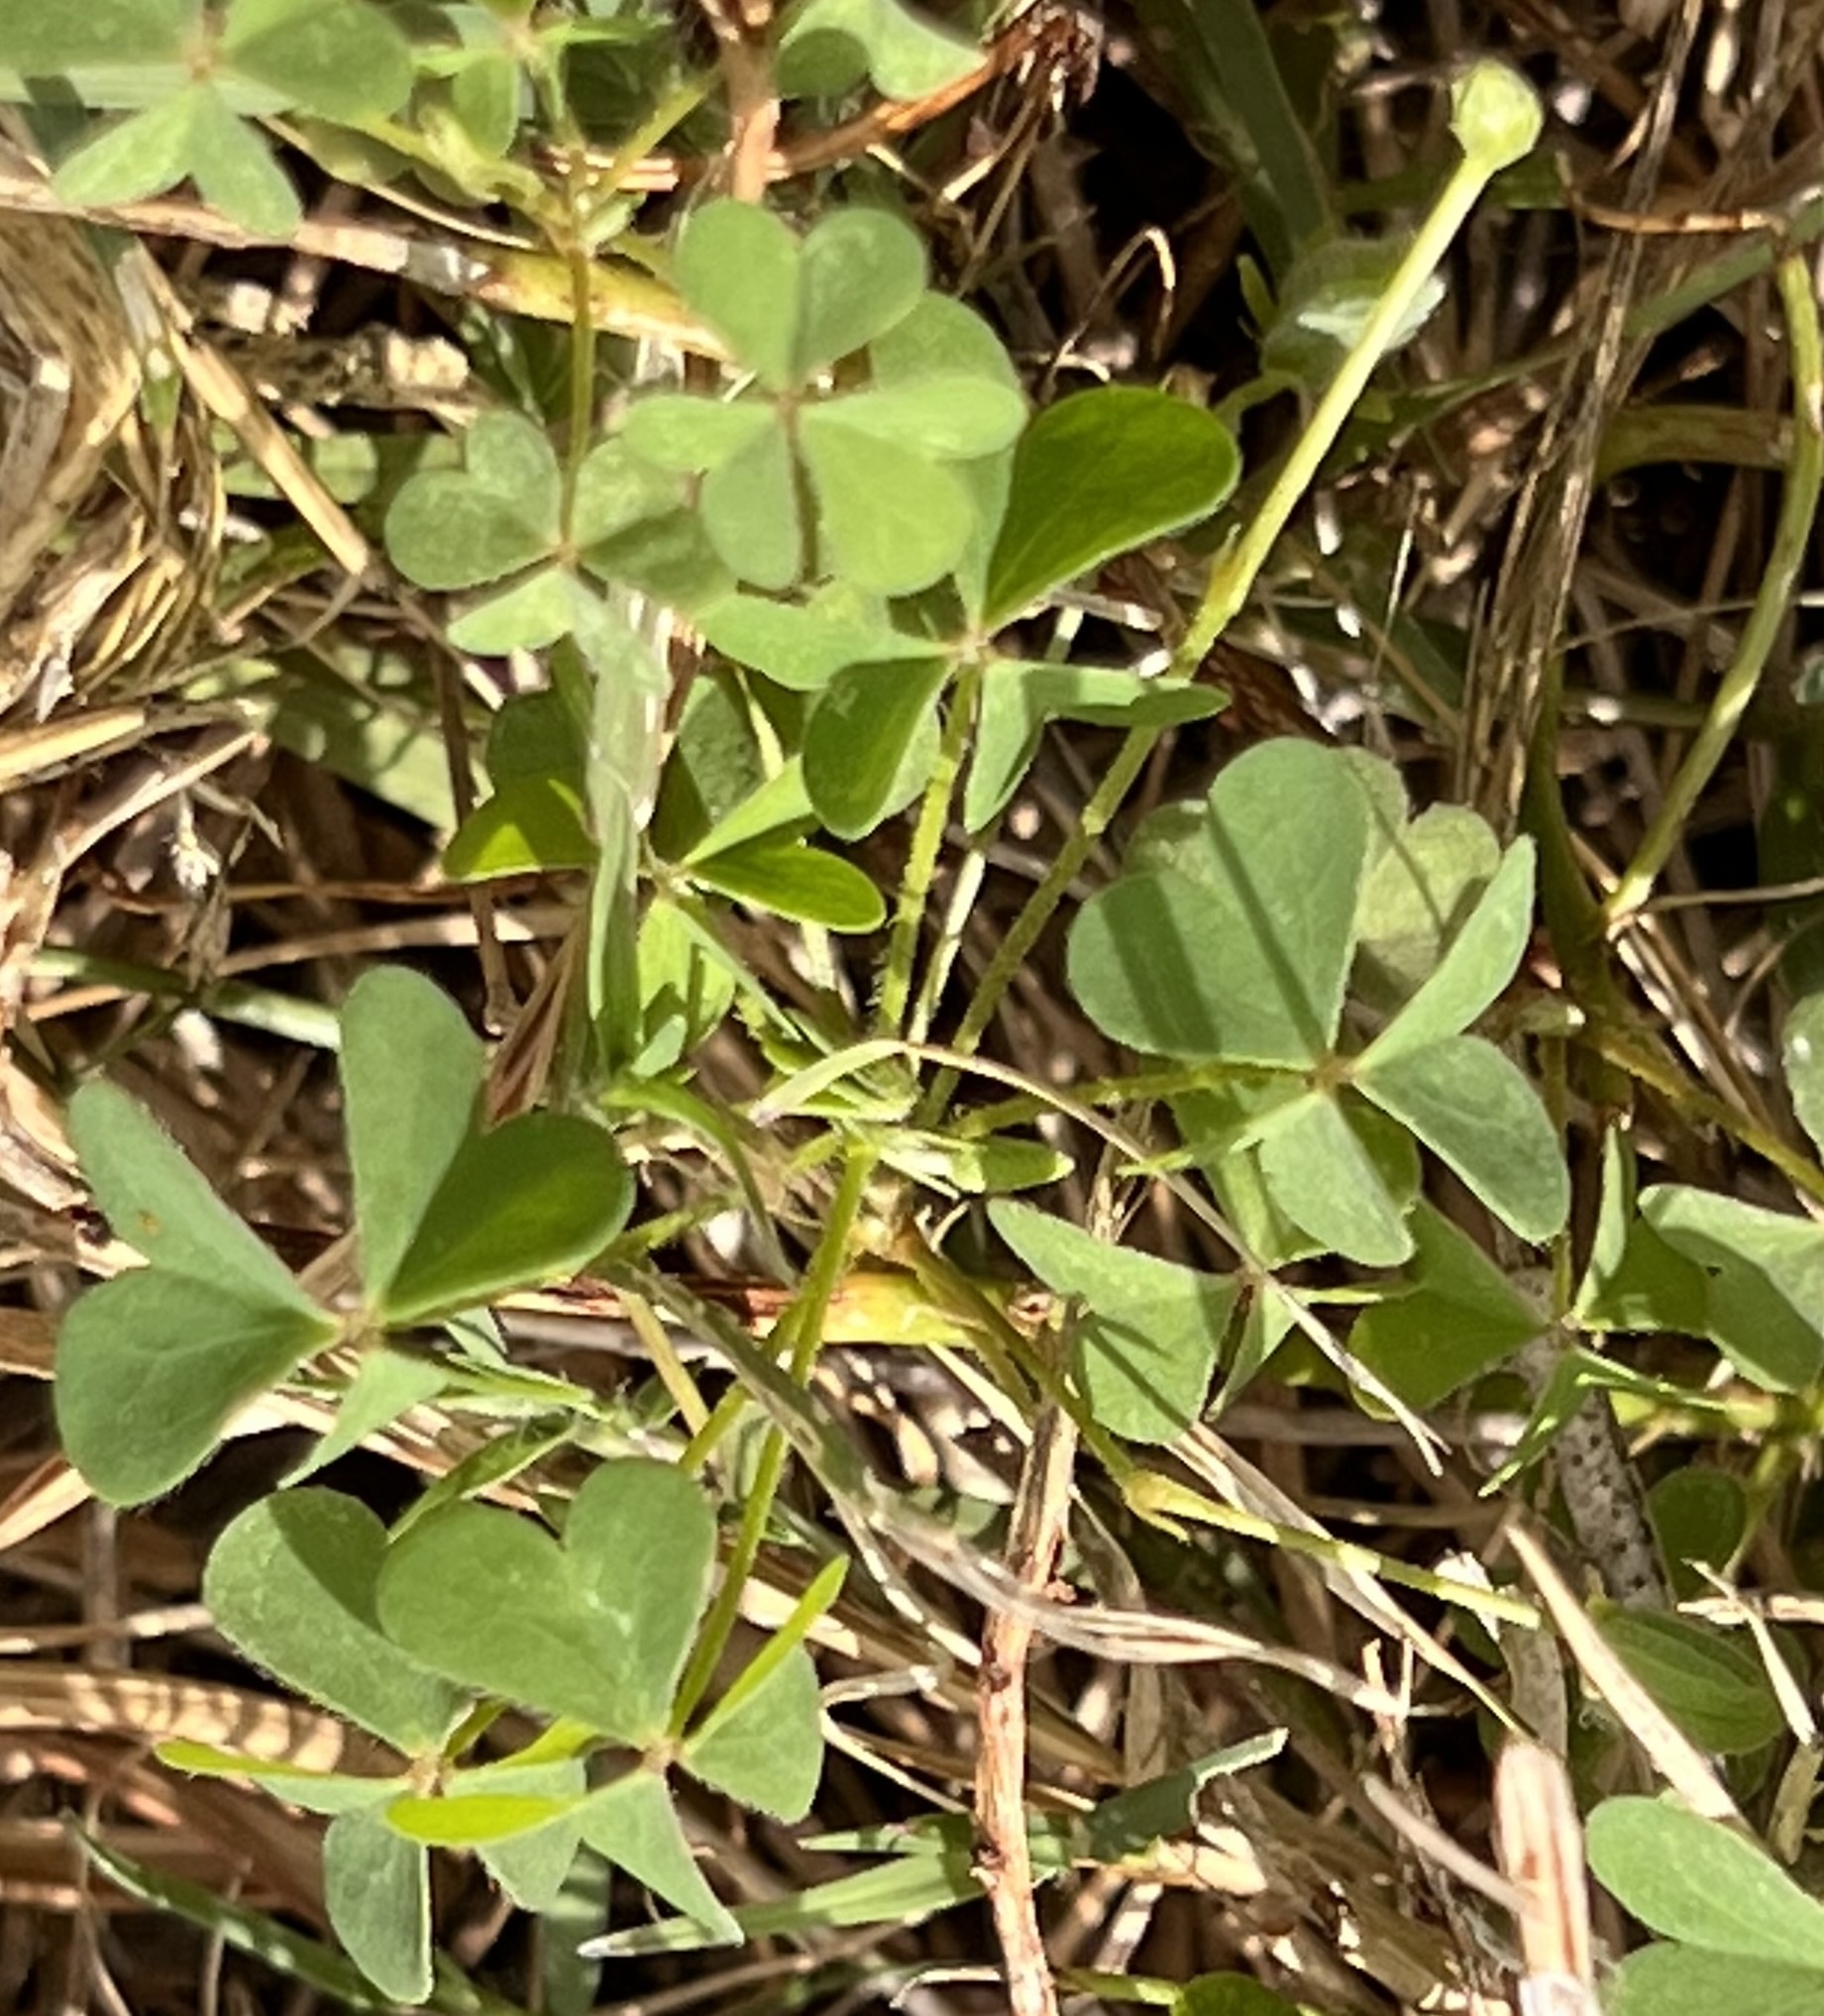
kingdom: Plantae
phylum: Tracheophyta
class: Magnoliopsida
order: Oxalidales
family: Oxalidaceae
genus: Oxalis
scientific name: Oxalis dillenii
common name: Sussex yellow-sorrel
